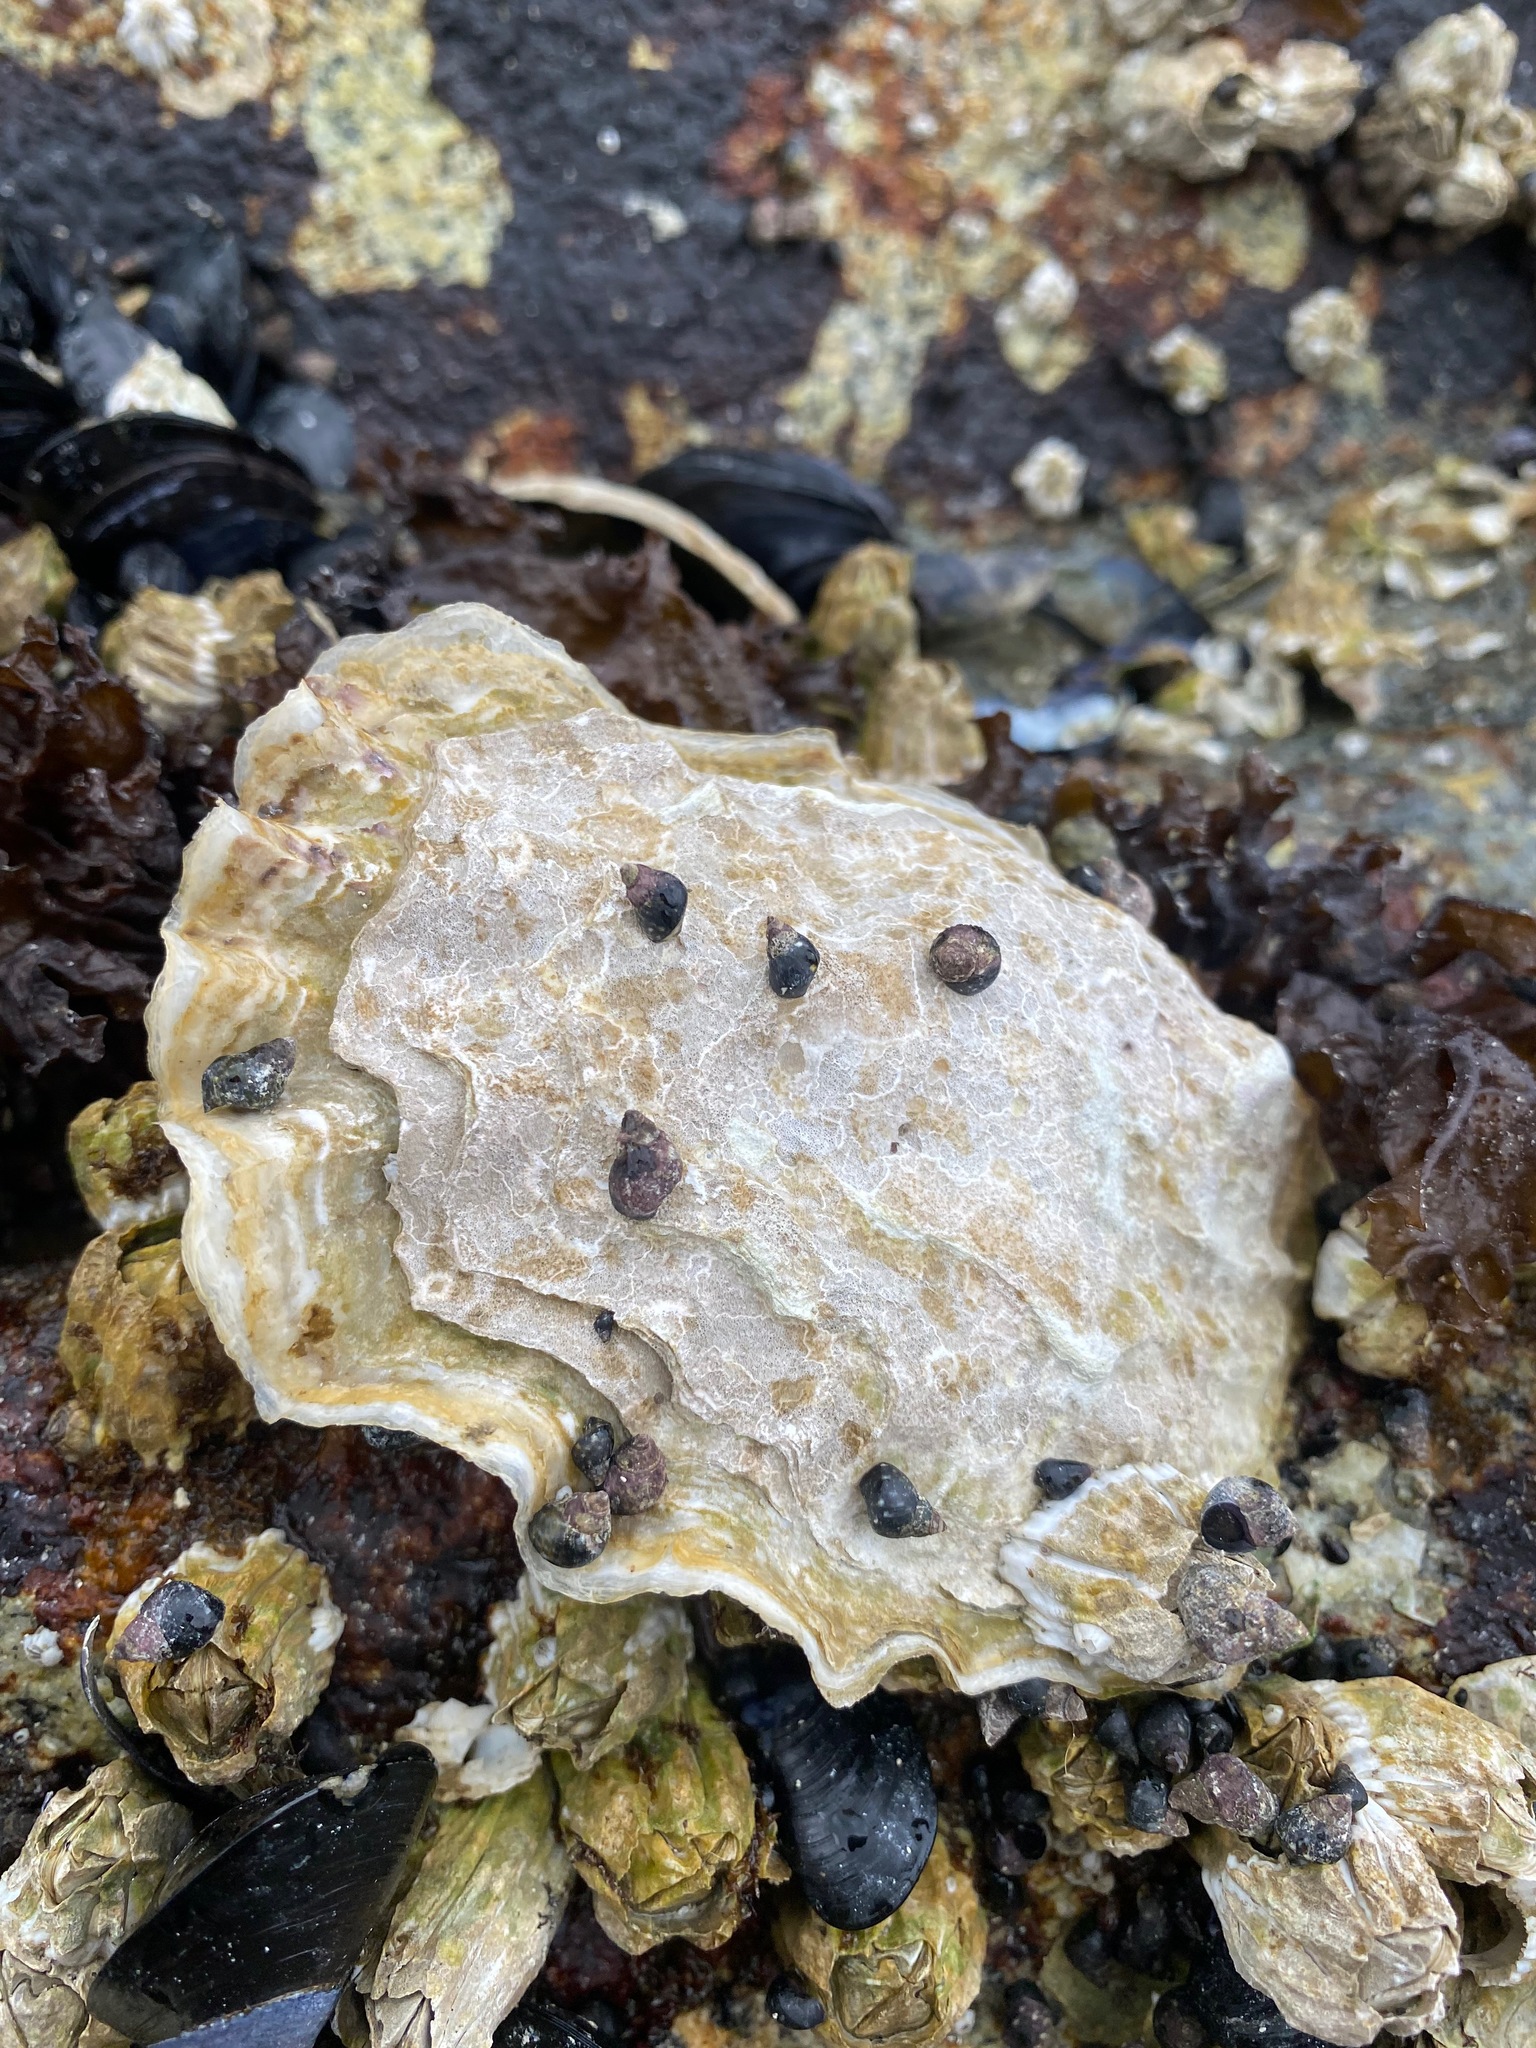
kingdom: Animalia
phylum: Mollusca
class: Bivalvia
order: Ostreida
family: Ostreidae
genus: Magallana
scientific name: Magallana gigas
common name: Pacific oyster
